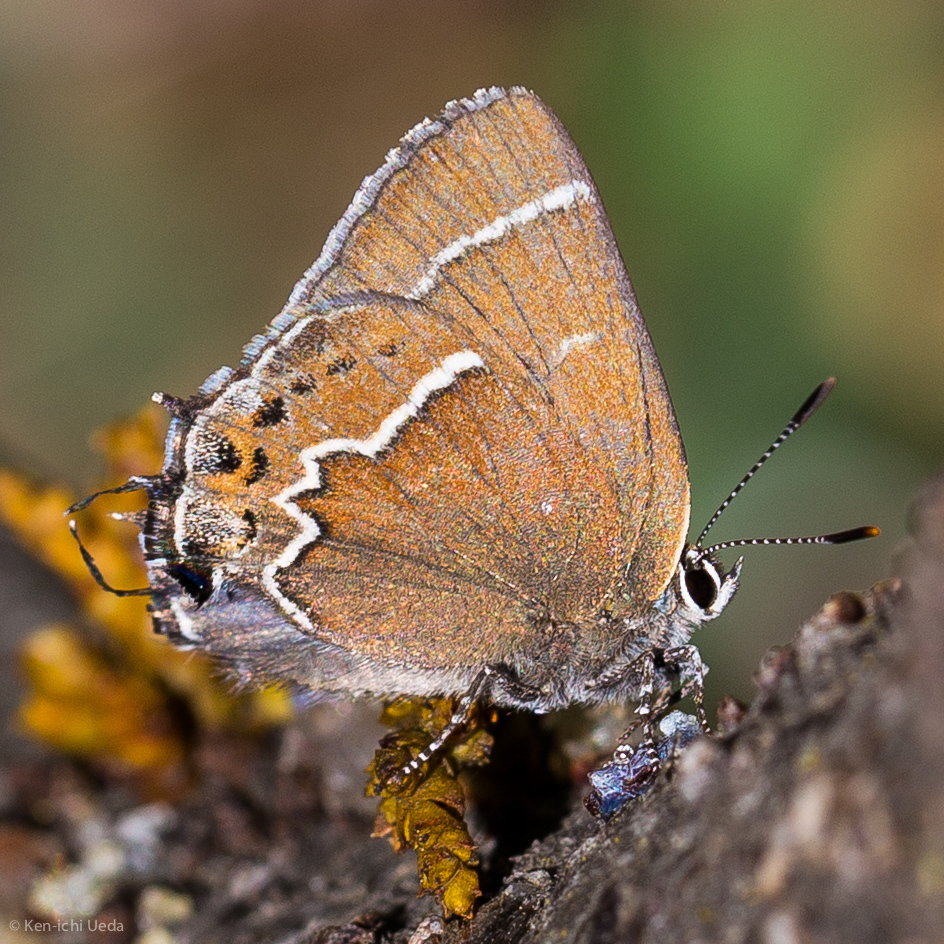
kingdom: Animalia
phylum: Arthropoda
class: Insecta
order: Lepidoptera
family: Lycaenidae
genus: Mitoura
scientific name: Mitoura spinetorum
